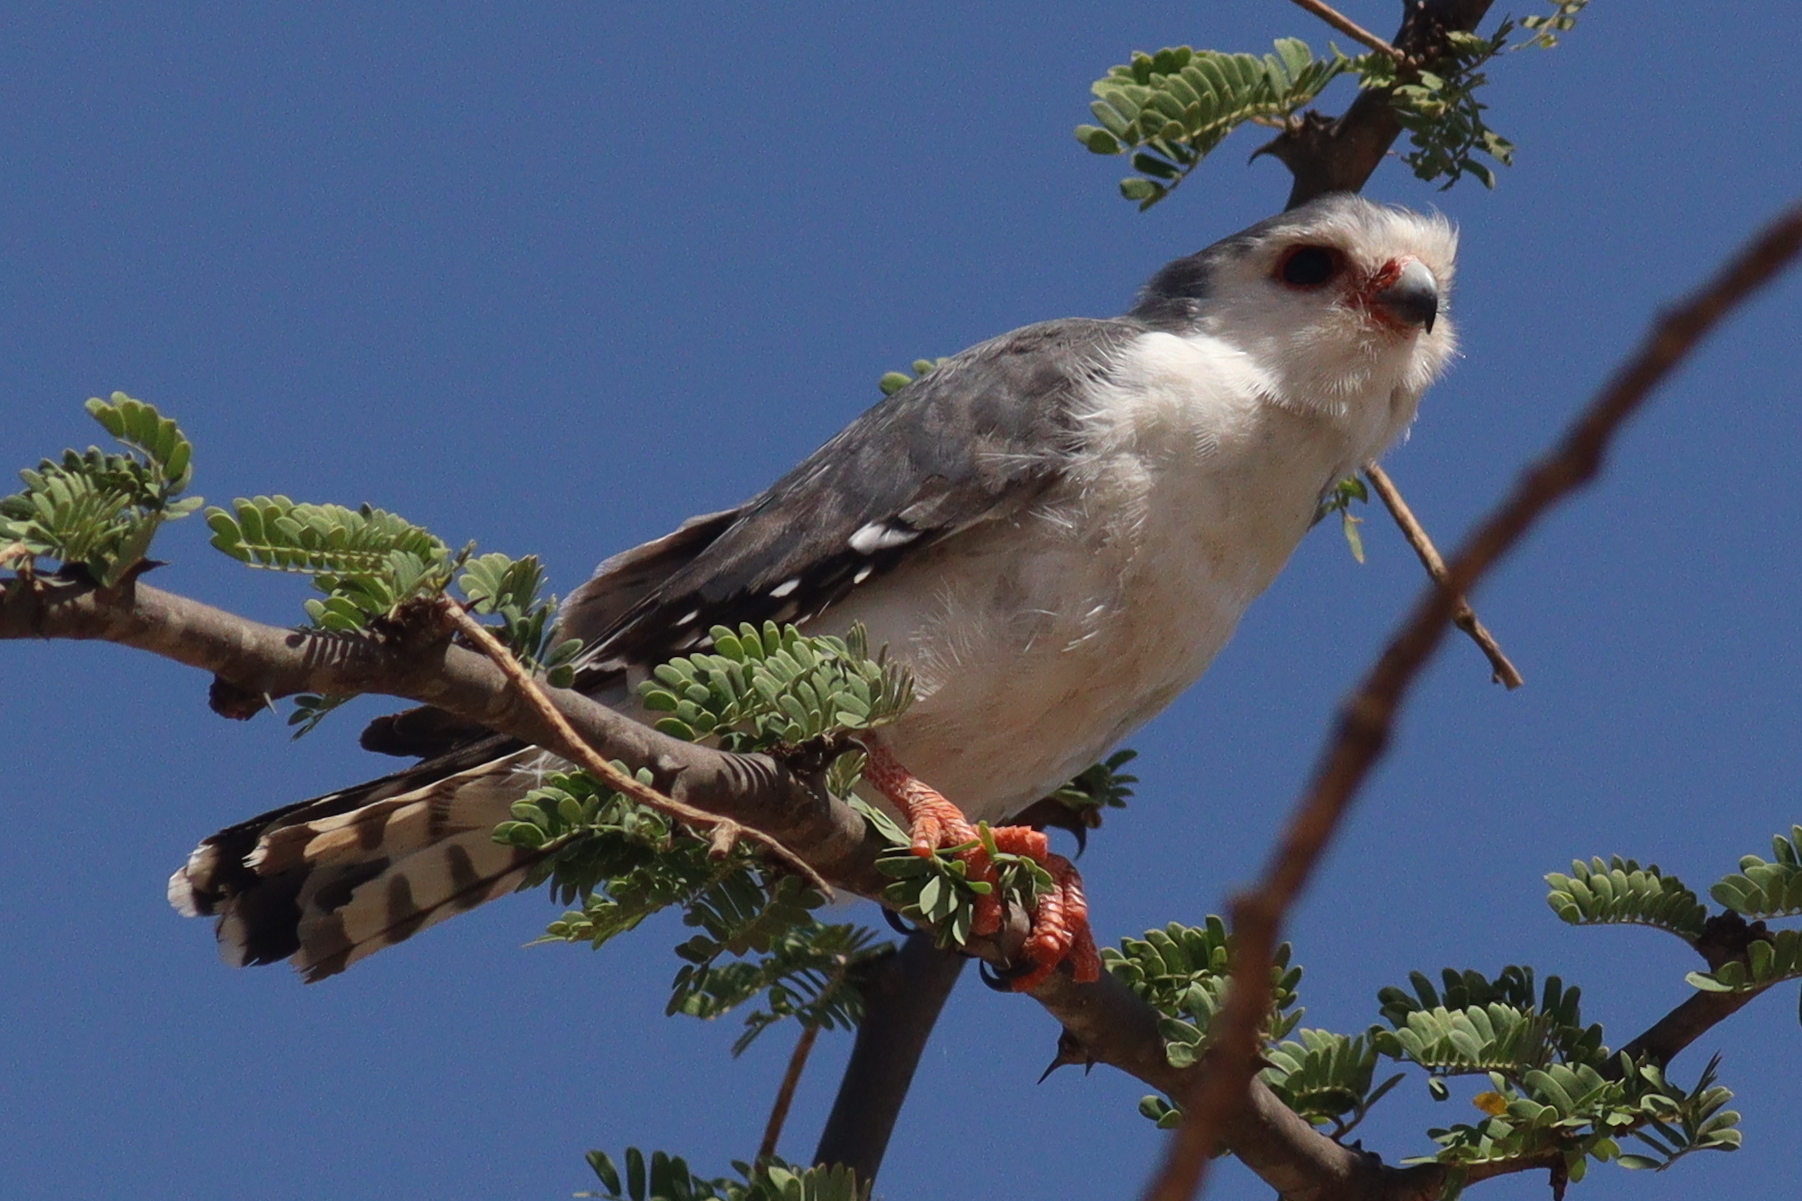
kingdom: Animalia
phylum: Chordata
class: Aves
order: Falconiformes
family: Falconidae
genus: Polihierax
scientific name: Polihierax semitorquatus
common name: Pygmy falcon
